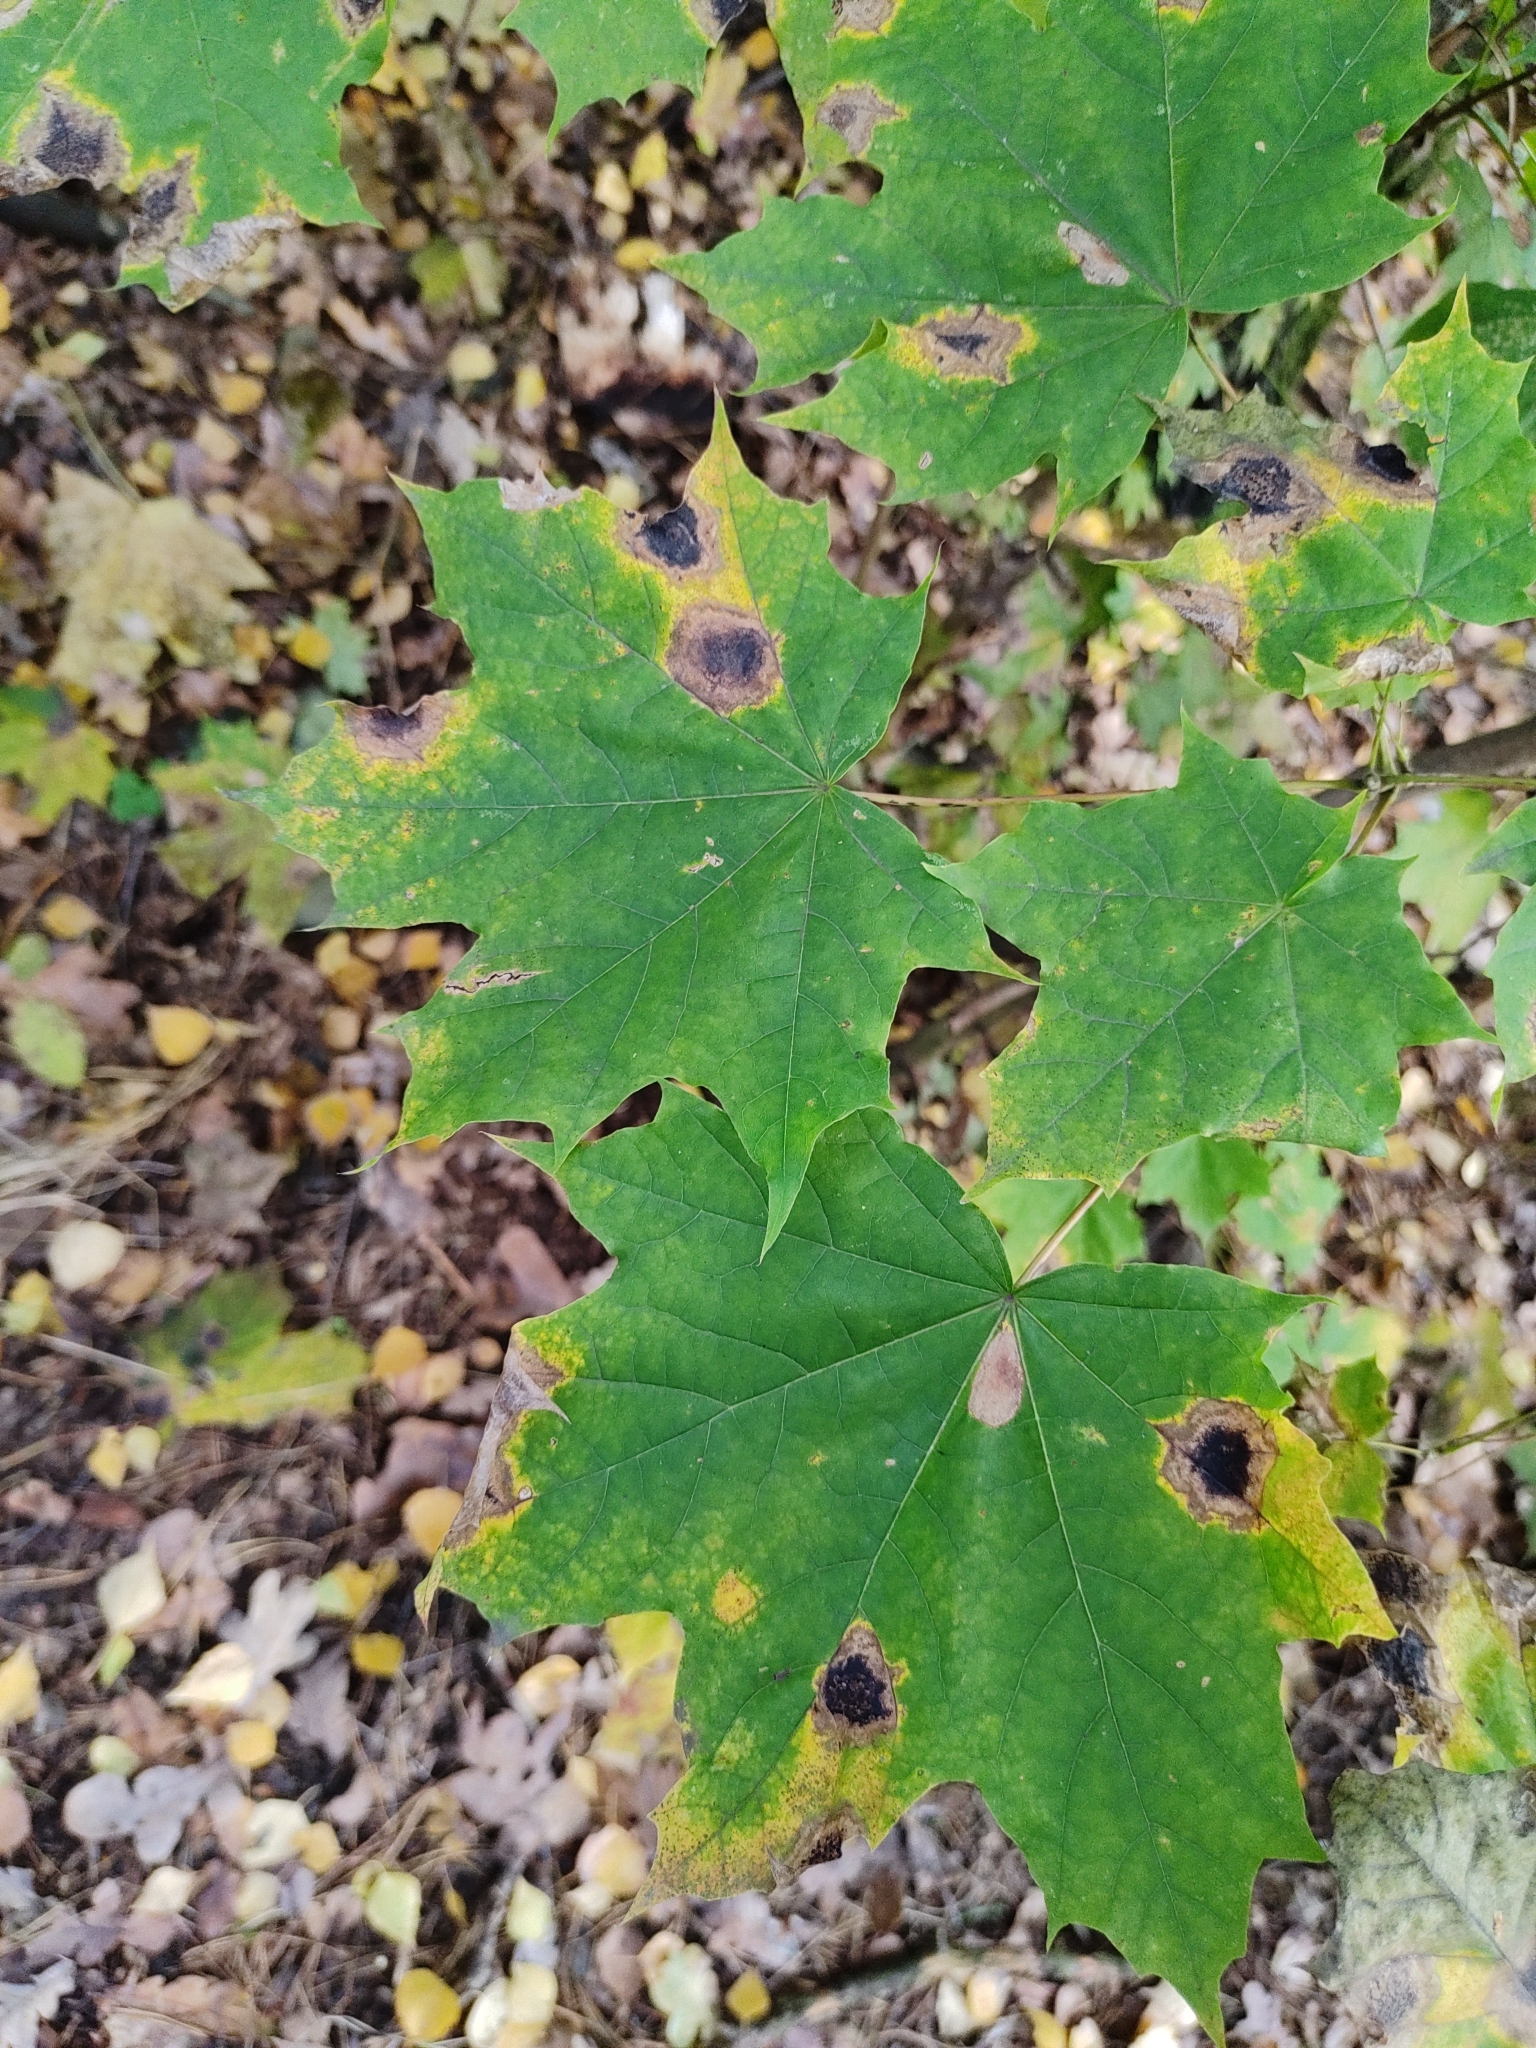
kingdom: Plantae
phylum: Tracheophyta
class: Magnoliopsida
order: Sapindales
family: Sapindaceae
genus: Acer
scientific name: Acer platanoides
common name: Norway maple
